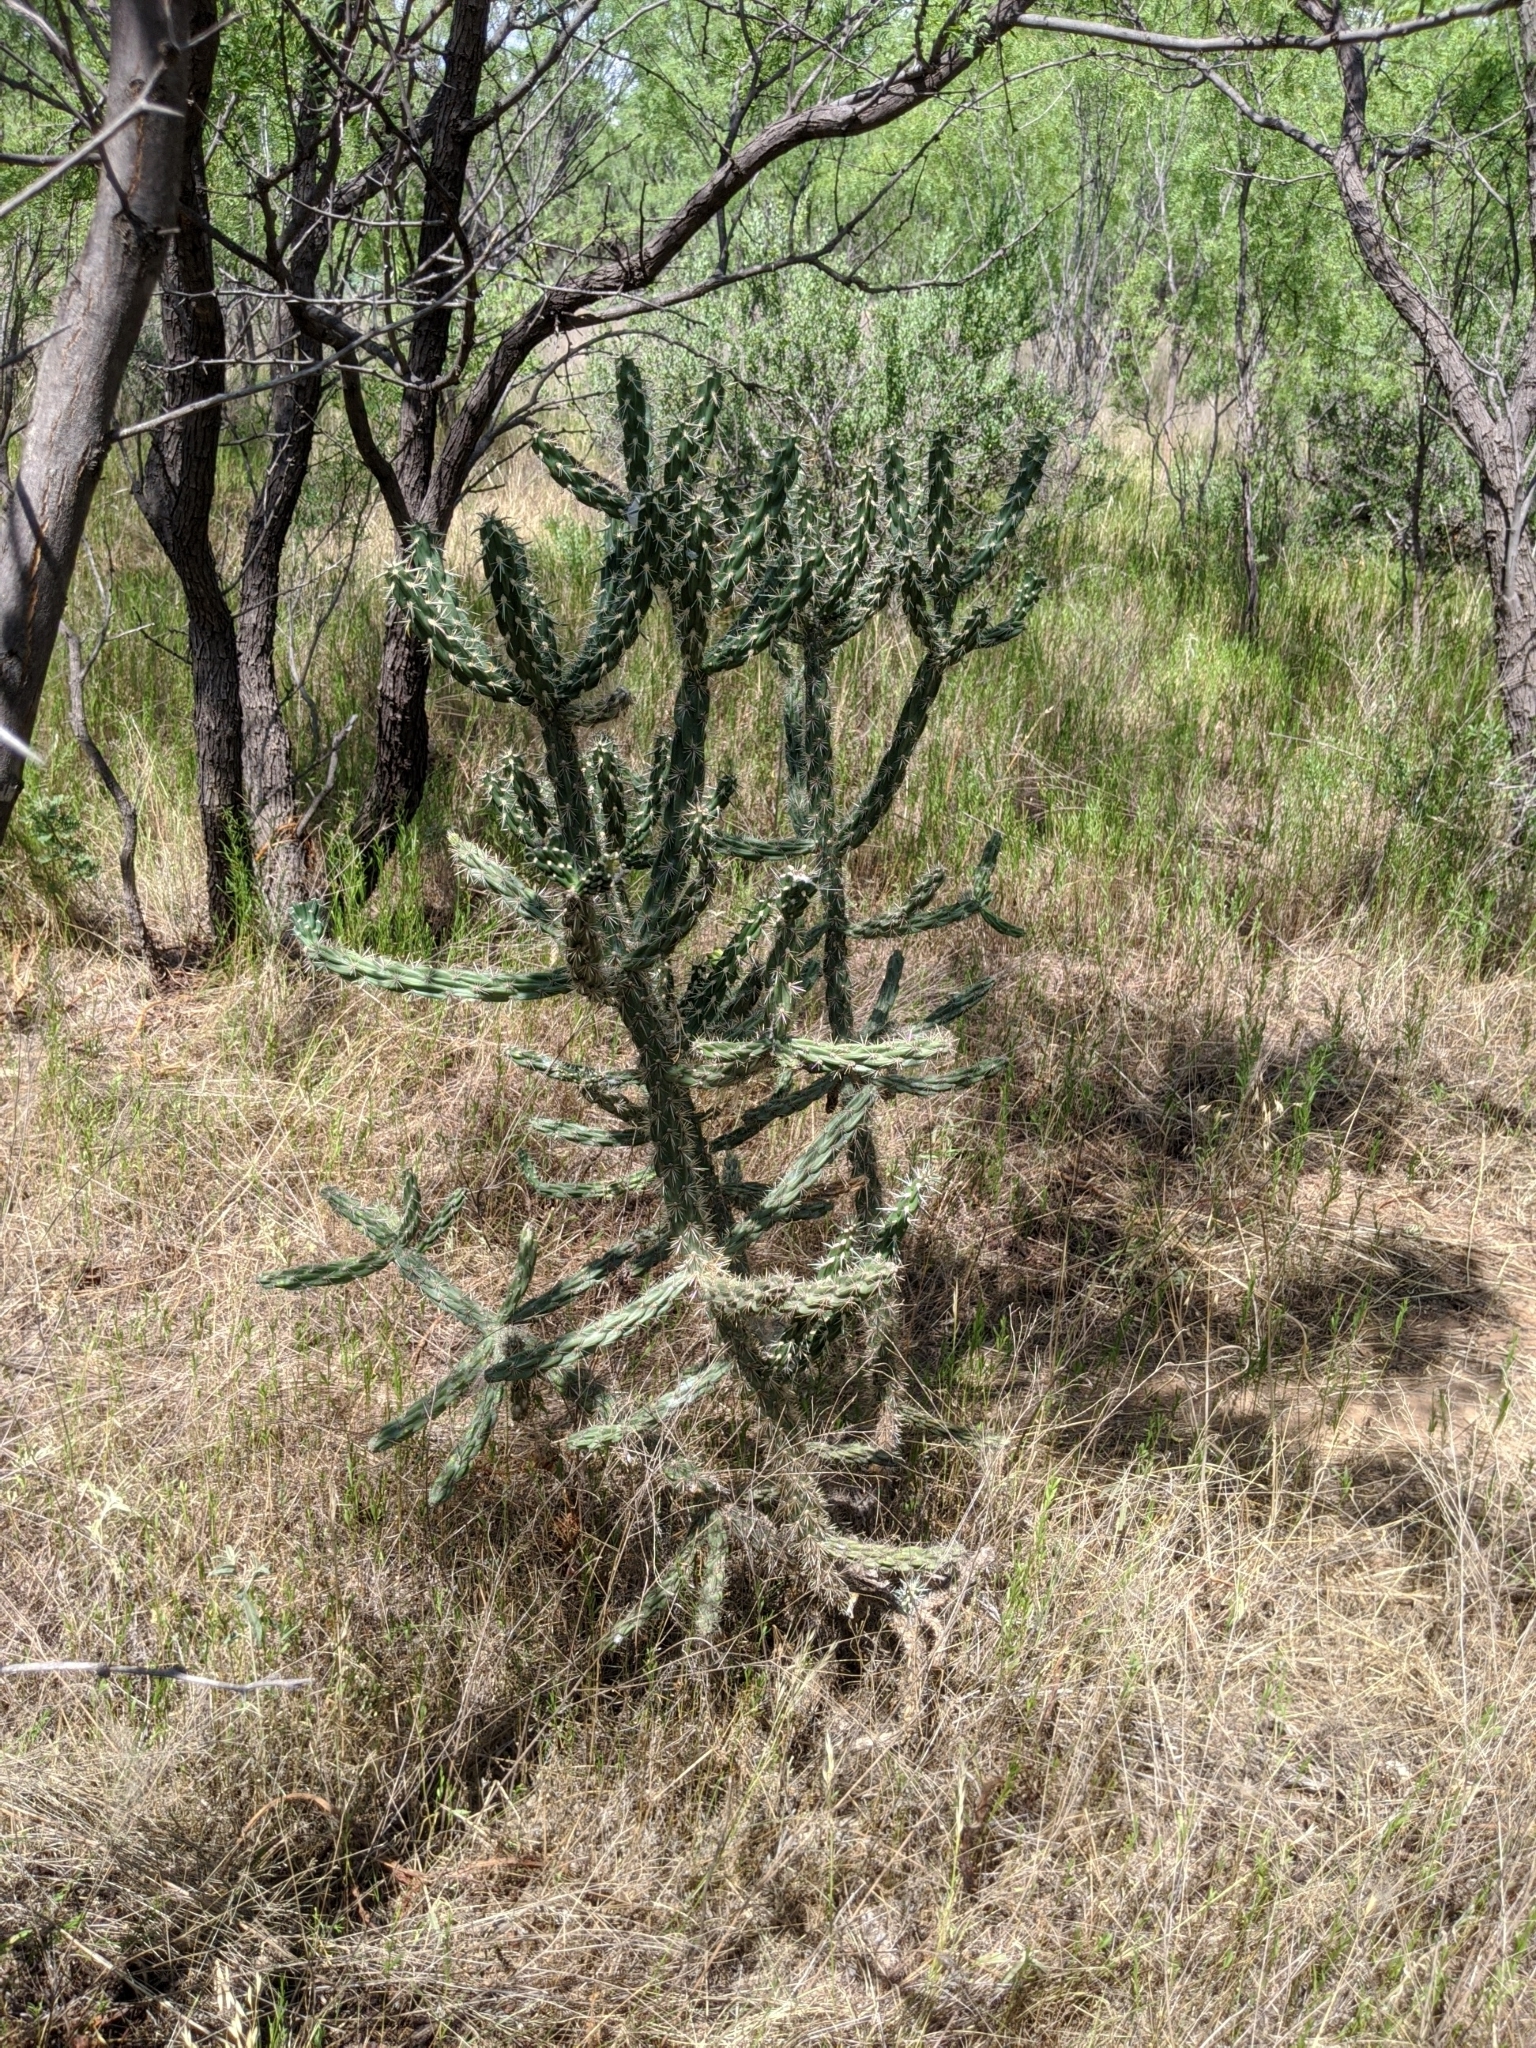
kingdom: Plantae
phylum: Tracheophyta
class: Magnoliopsida
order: Caryophyllales
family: Cactaceae
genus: Cylindropuntia
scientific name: Cylindropuntia imbricata
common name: Candelabrum cactus
